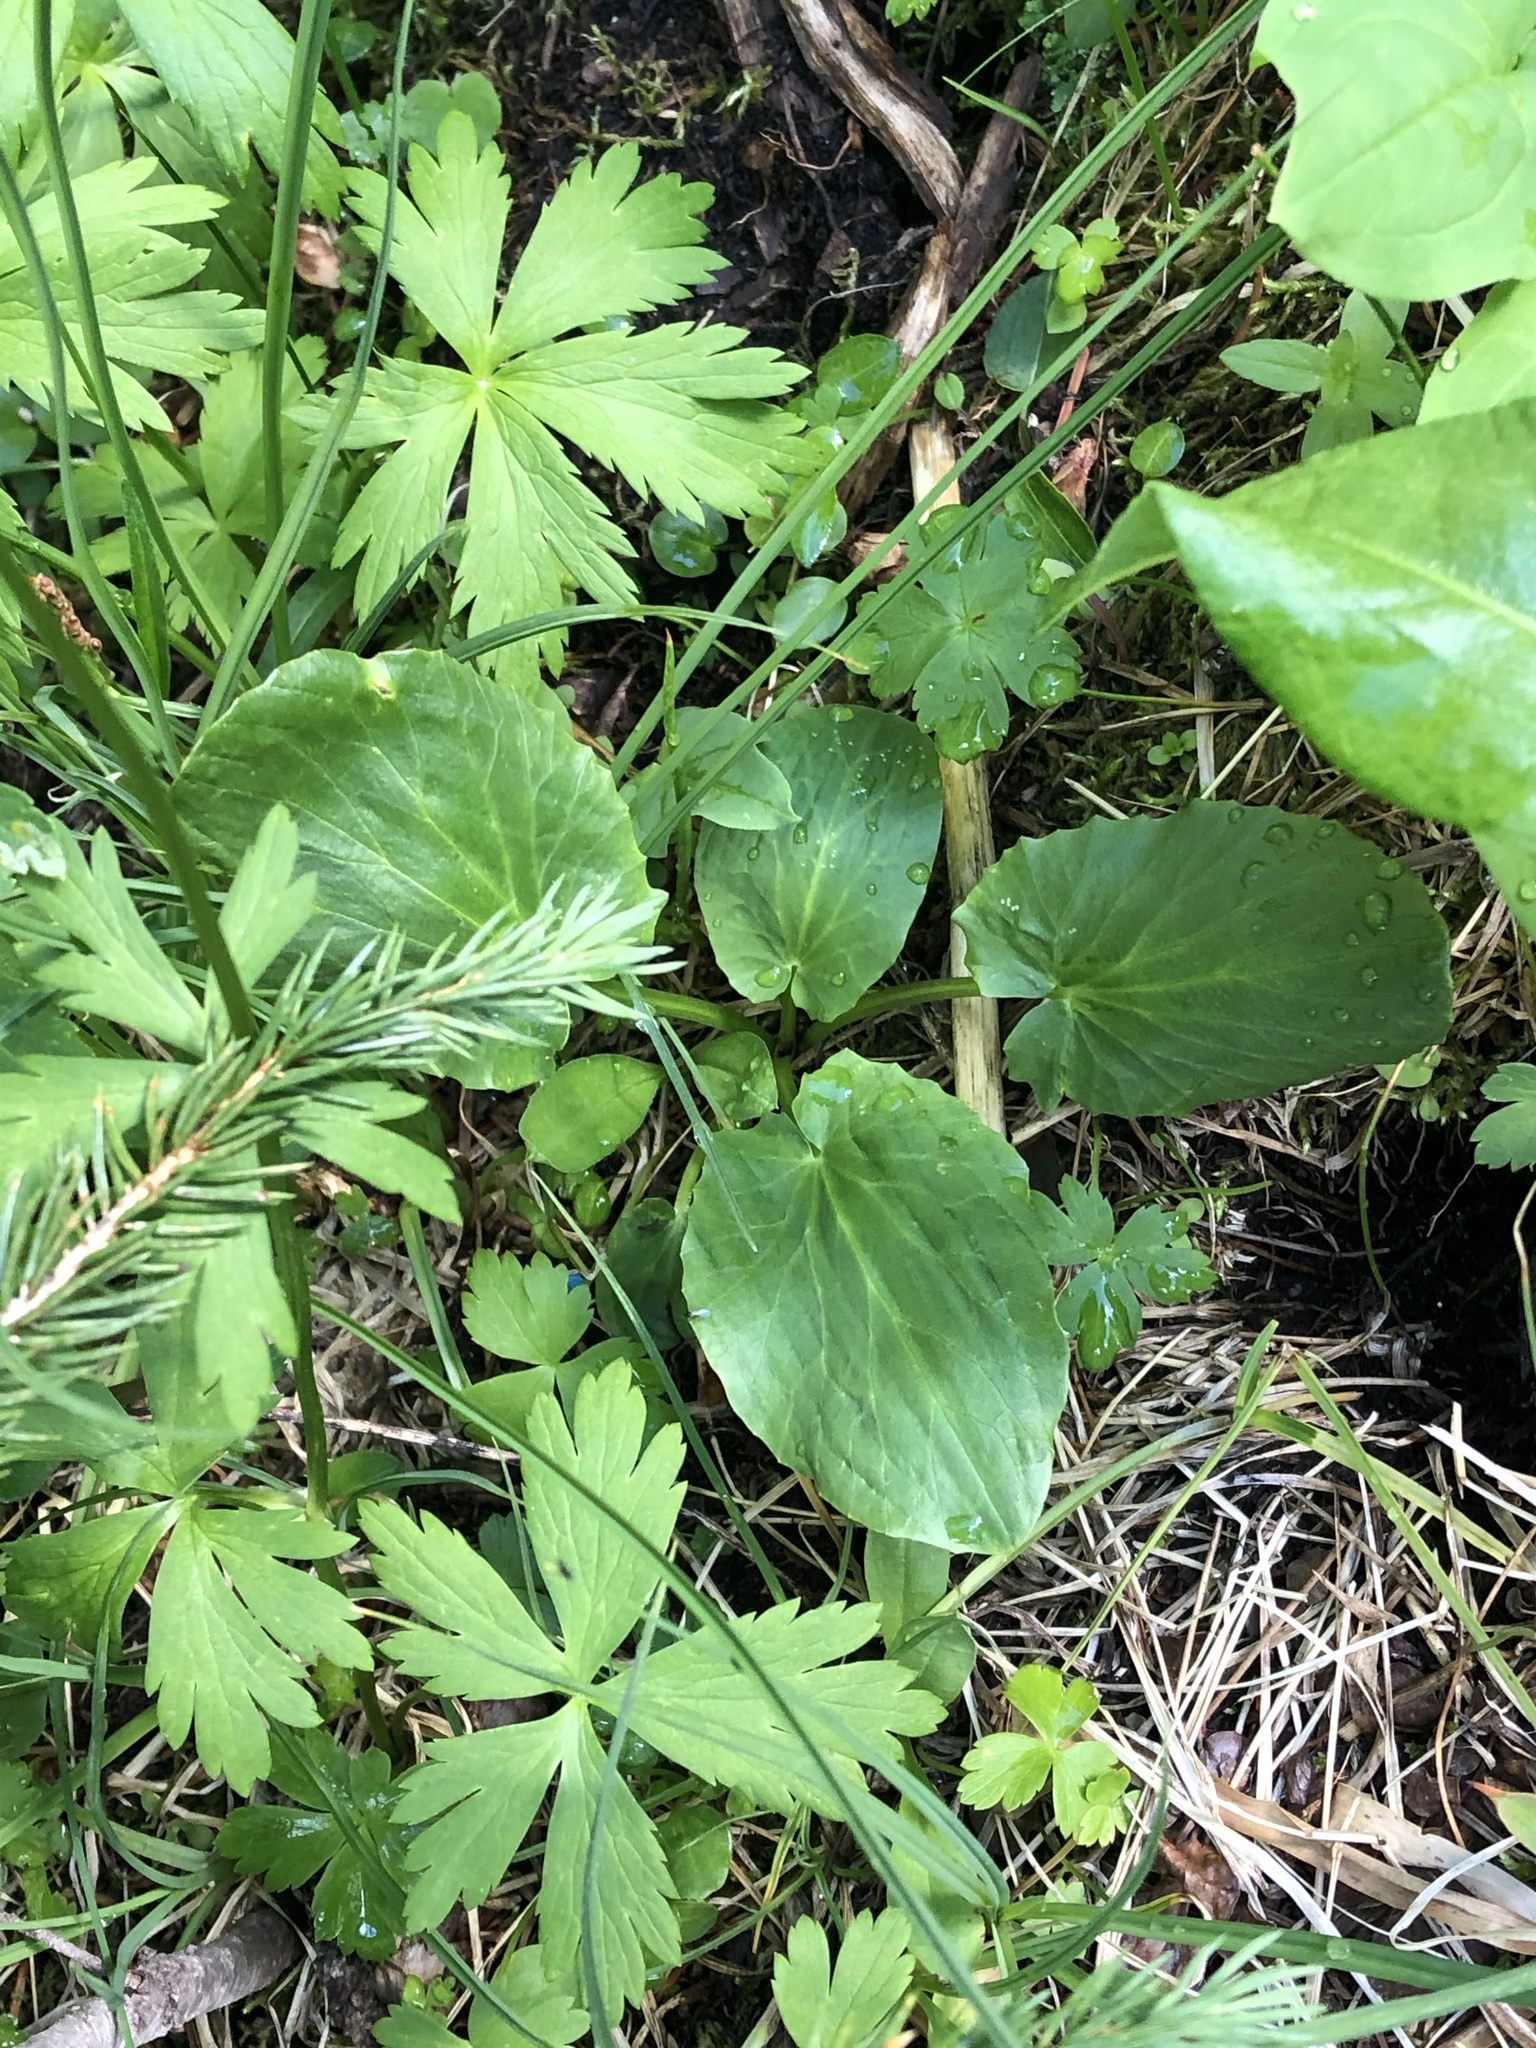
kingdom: Plantae
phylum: Tracheophyta
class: Magnoliopsida
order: Ranunculales
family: Ranunculaceae
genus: Caltha
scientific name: Caltha leptosepala
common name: Elkslip
